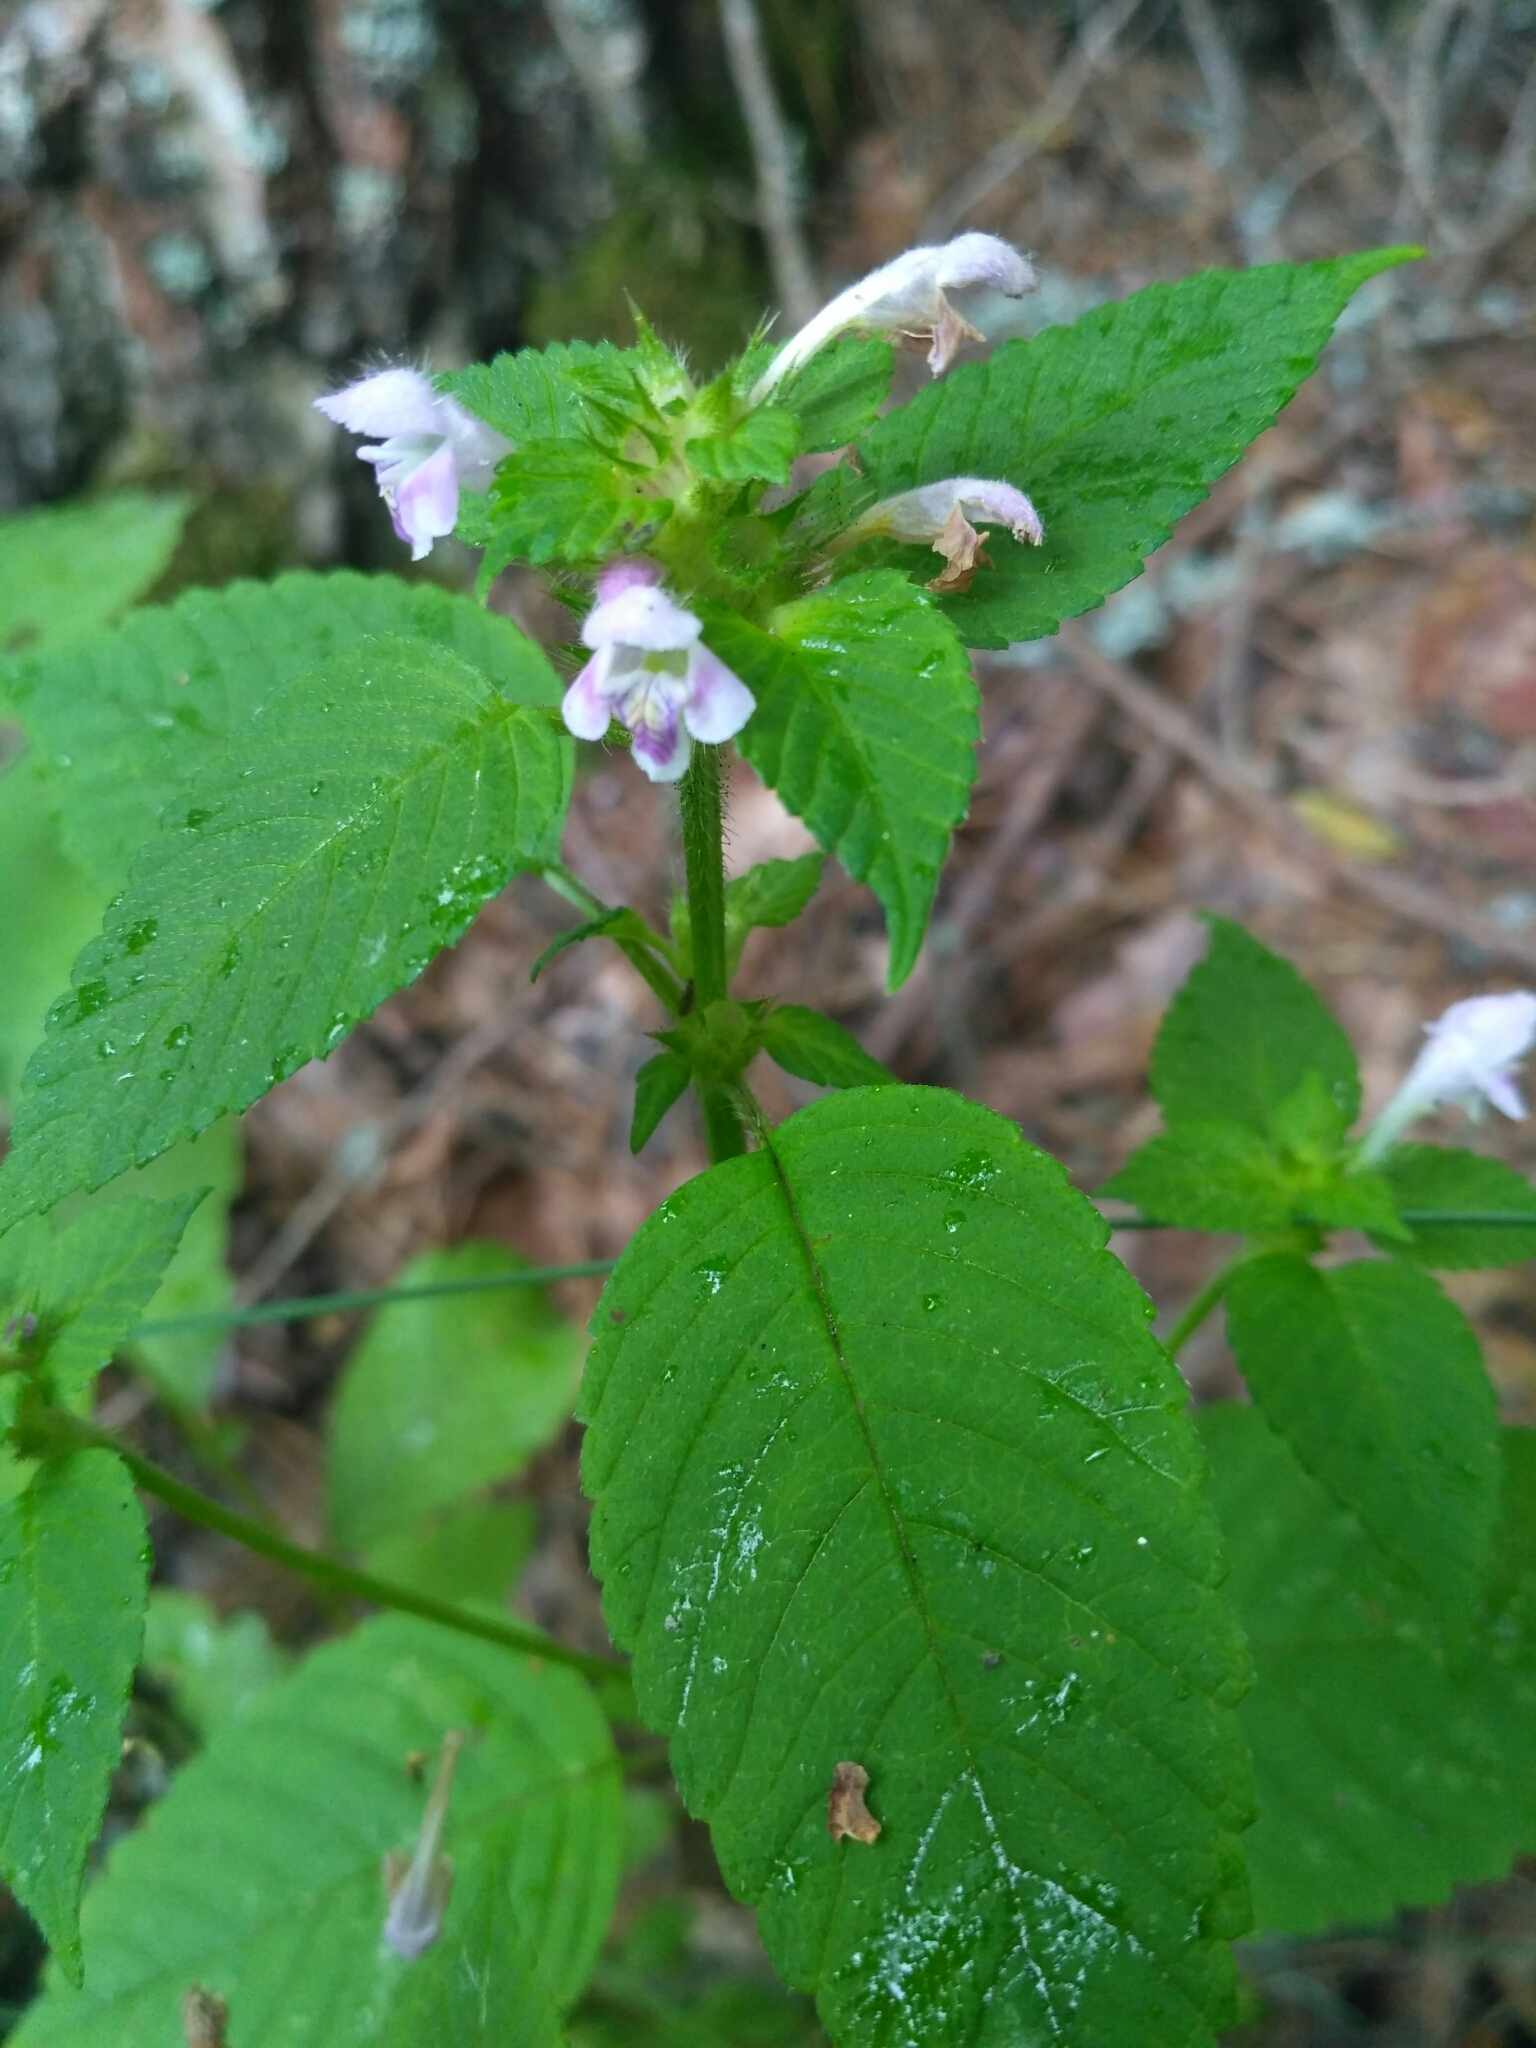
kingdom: Plantae
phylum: Tracheophyta
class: Magnoliopsida
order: Lamiales
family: Lamiaceae
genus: Galeopsis
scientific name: Galeopsis tetrahit
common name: Common hemp-nettle
